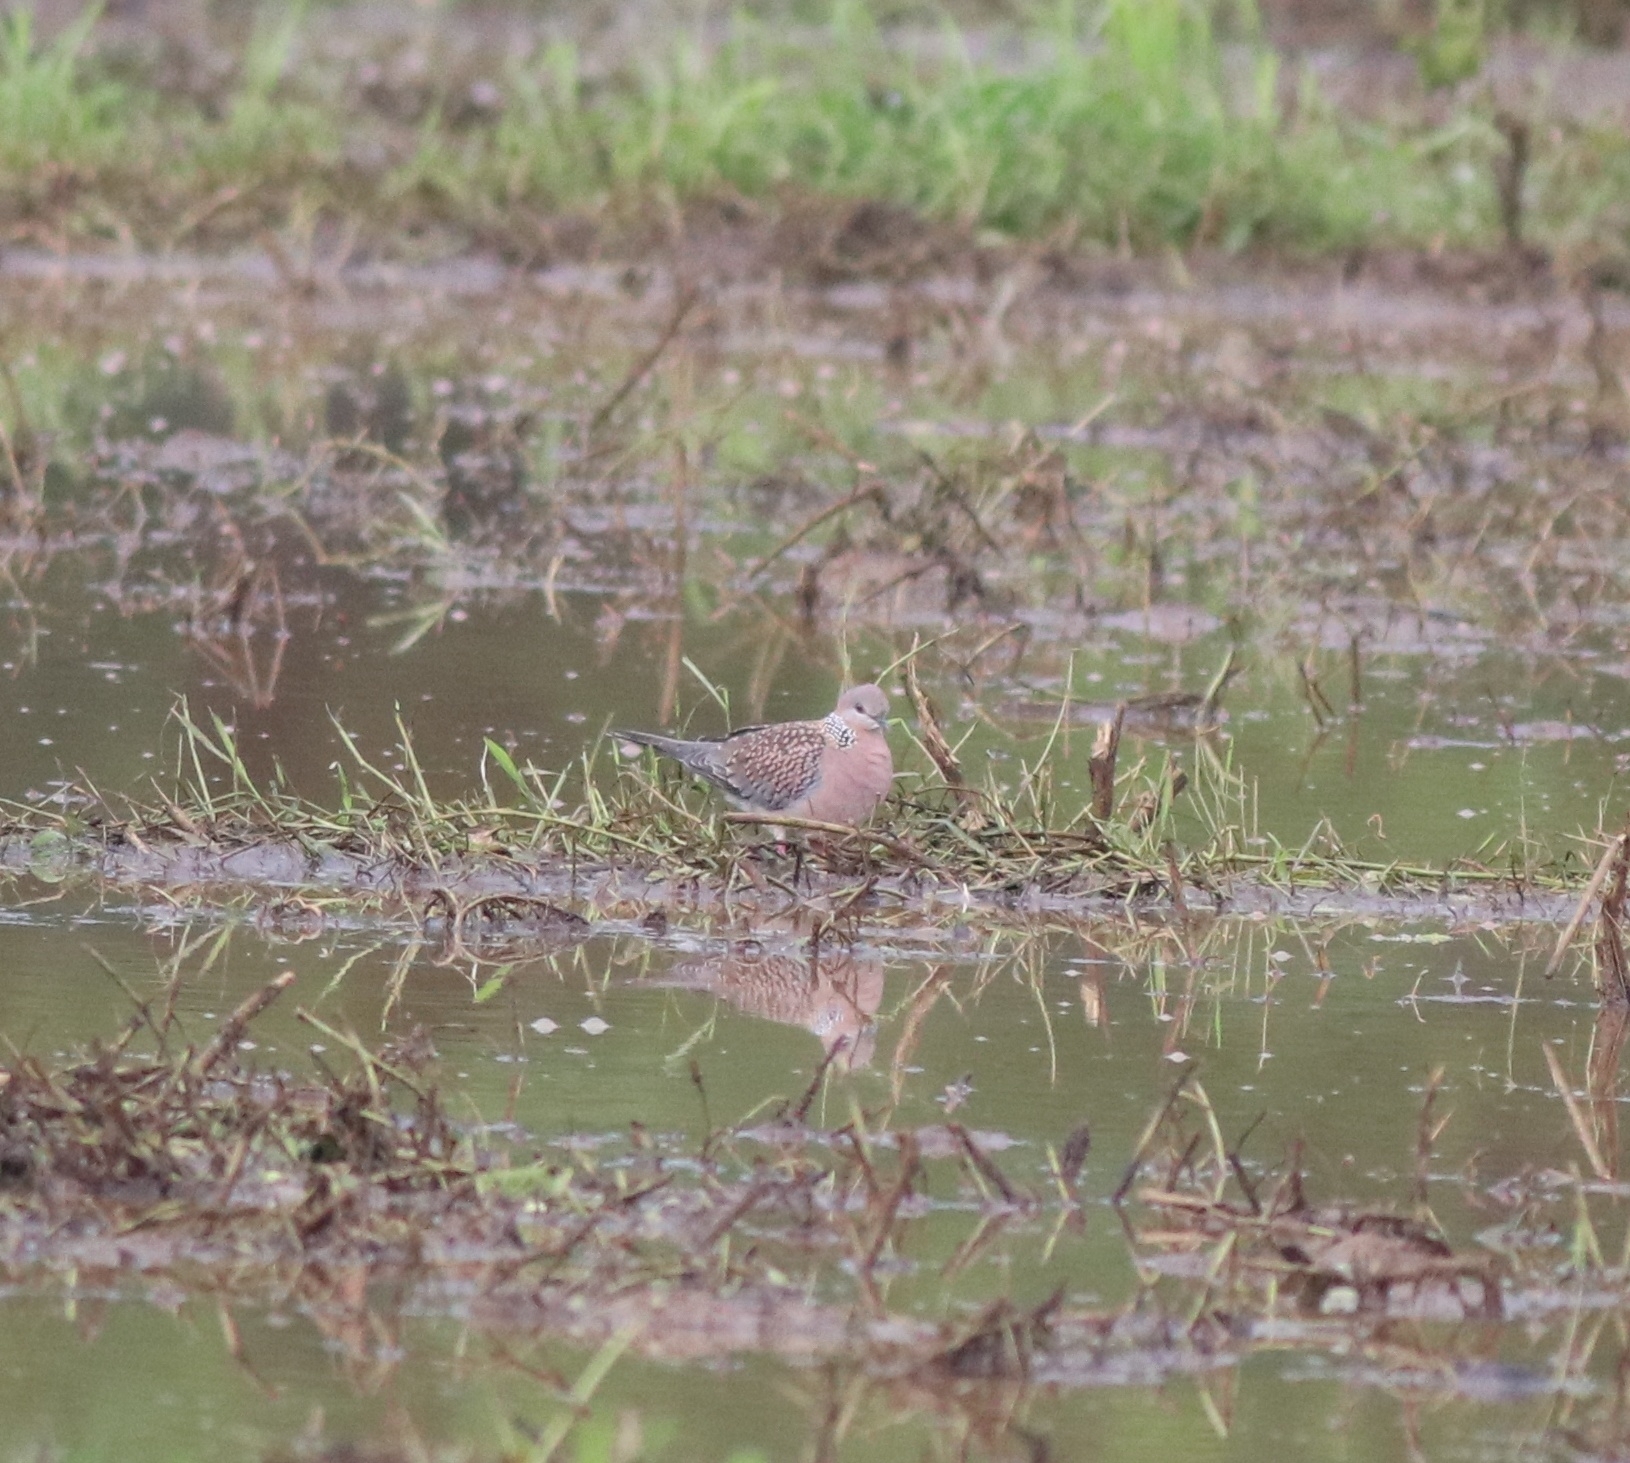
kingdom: Animalia
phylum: Chordata
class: Aves
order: Columbiformes
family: Columbidae
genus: Spilopelia
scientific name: Spilopelia chinensis
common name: Spotted dove
